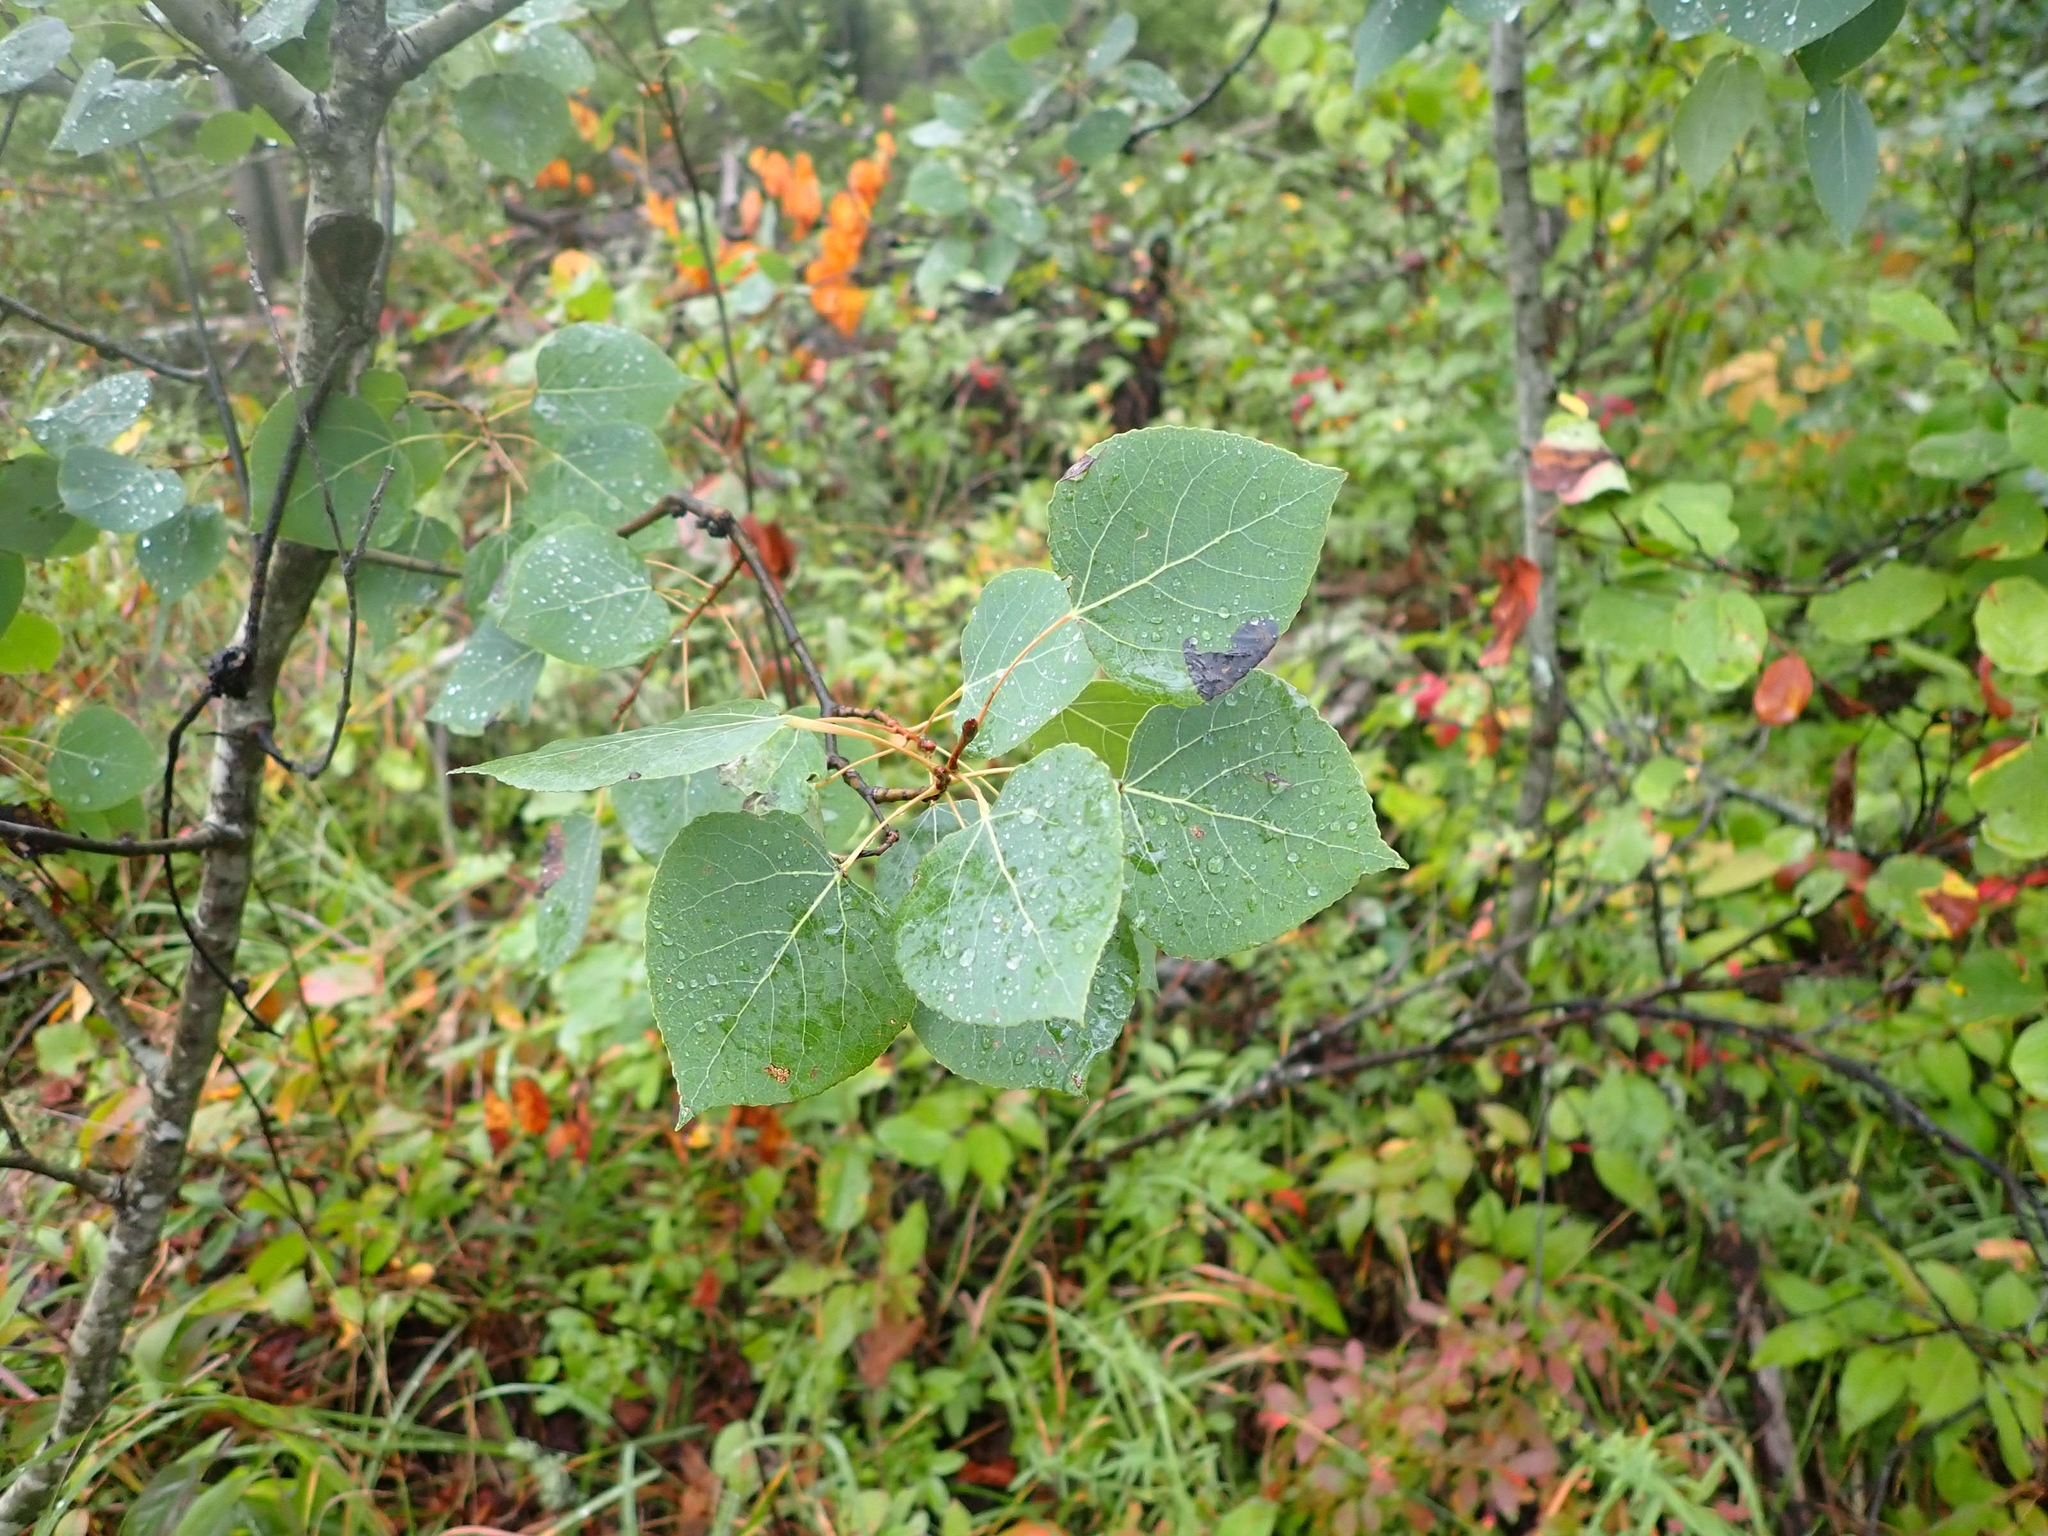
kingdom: Plantae
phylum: Tracheophyta
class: Magnoliopsida
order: Malpighiales
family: Salicaceae
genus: Populus
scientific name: Populus tremuloides
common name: Quaking aspen
